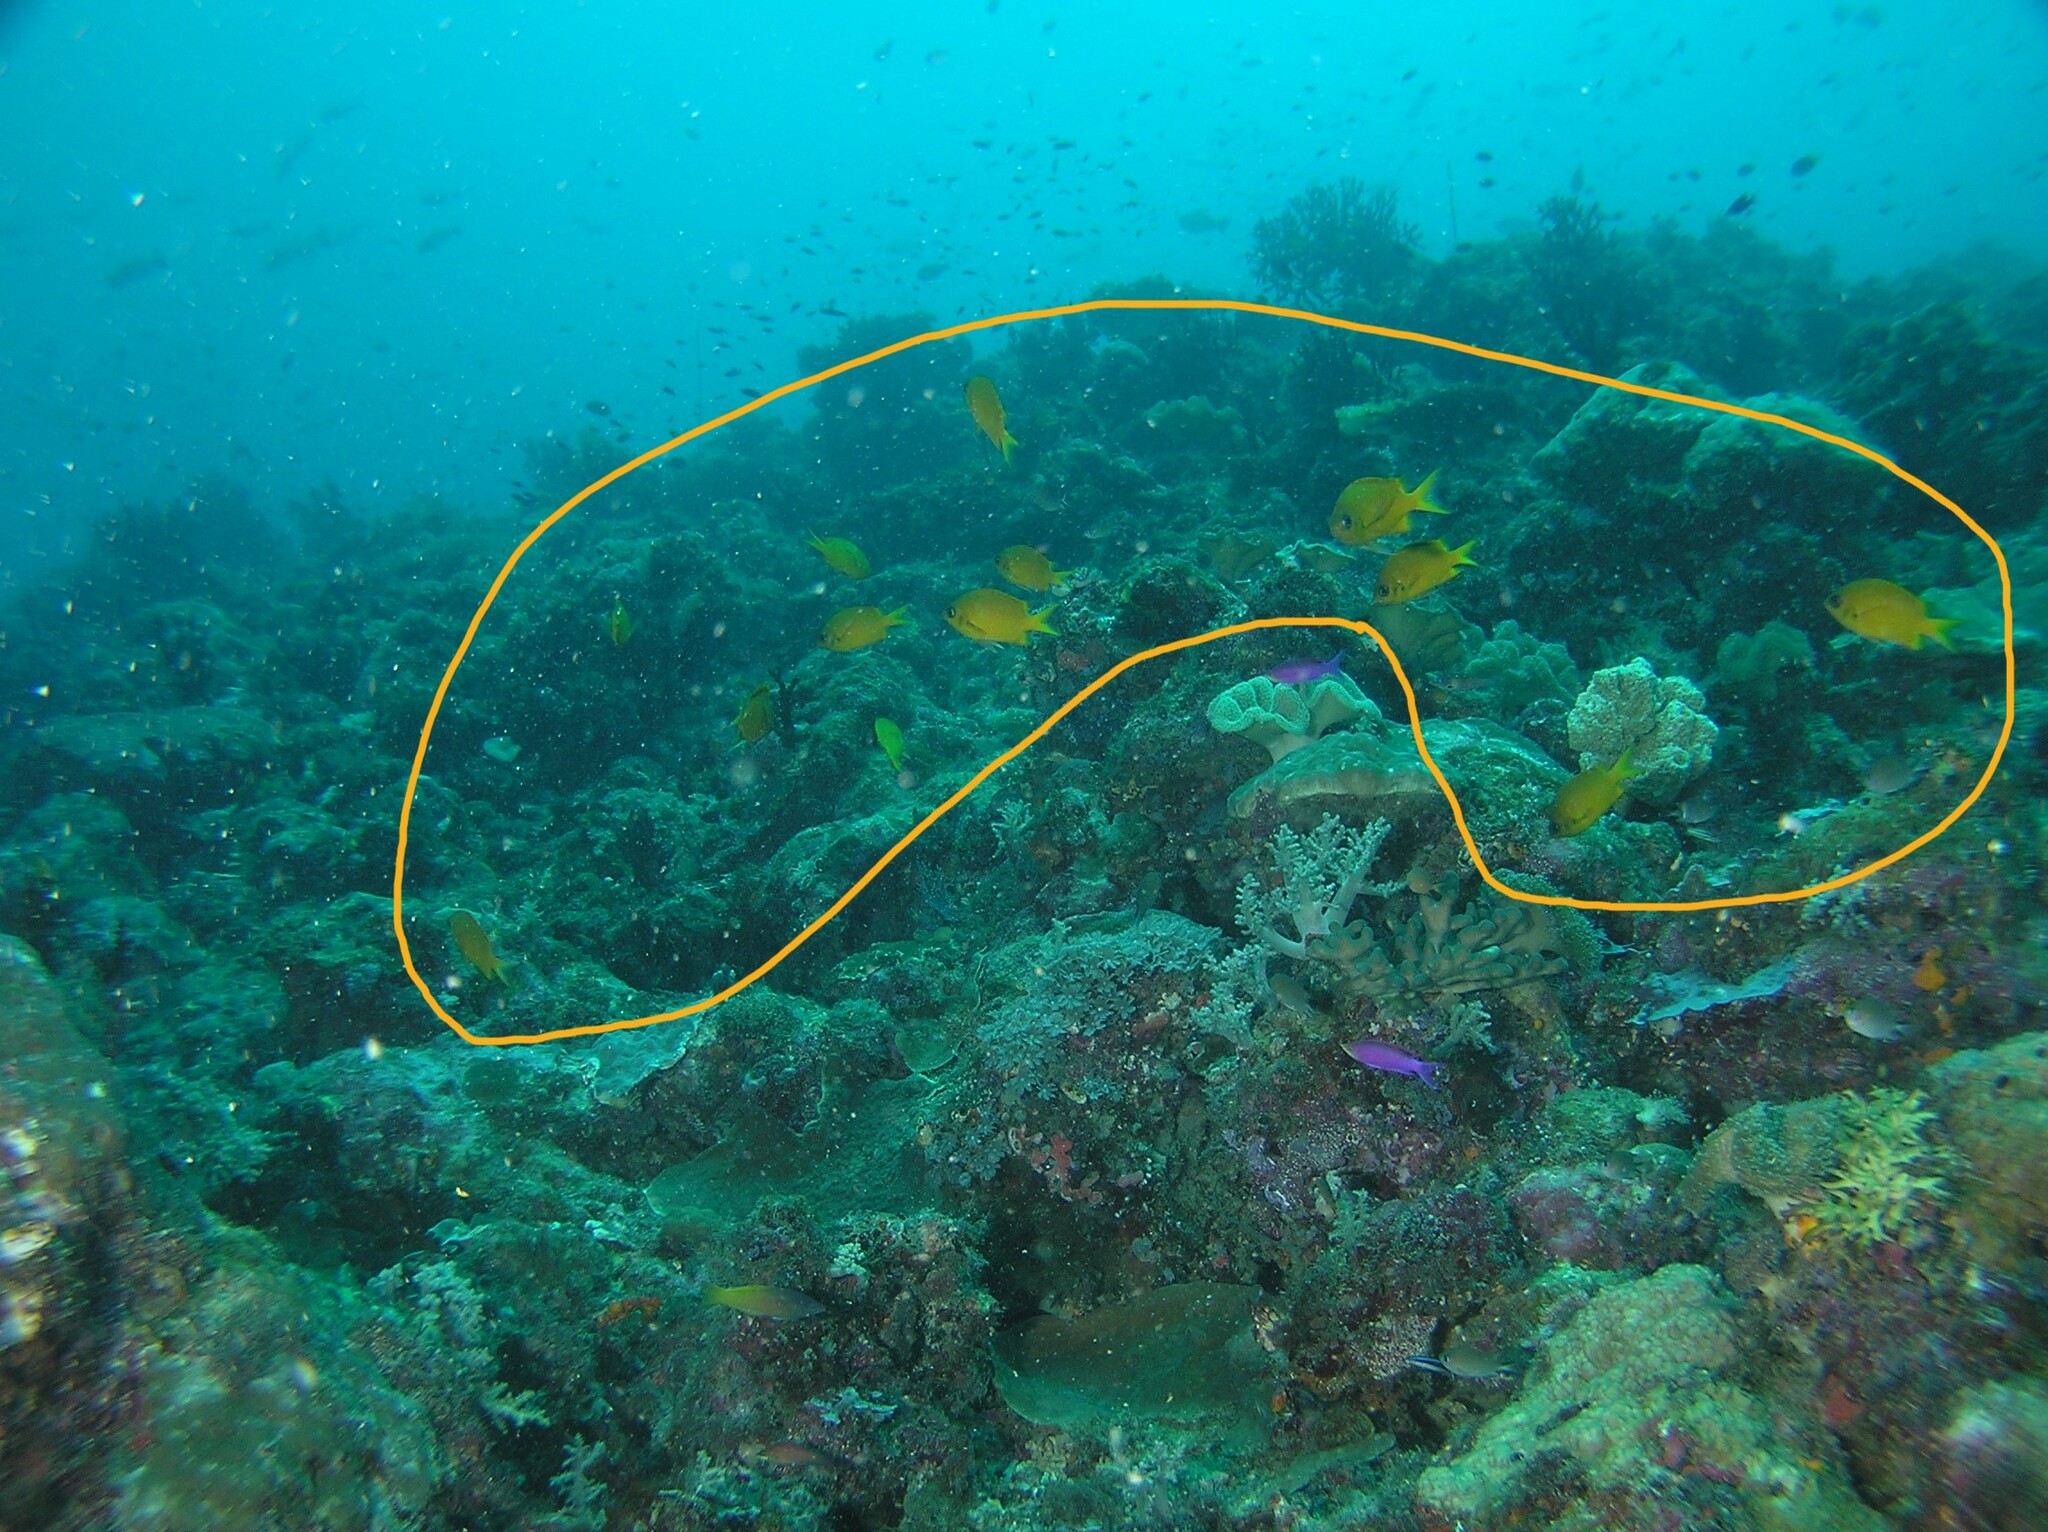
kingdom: Animalia
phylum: Chordata
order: Perciformes
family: Pomacentridae
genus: Chromis
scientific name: Chromis analis
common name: Yellow chromis
